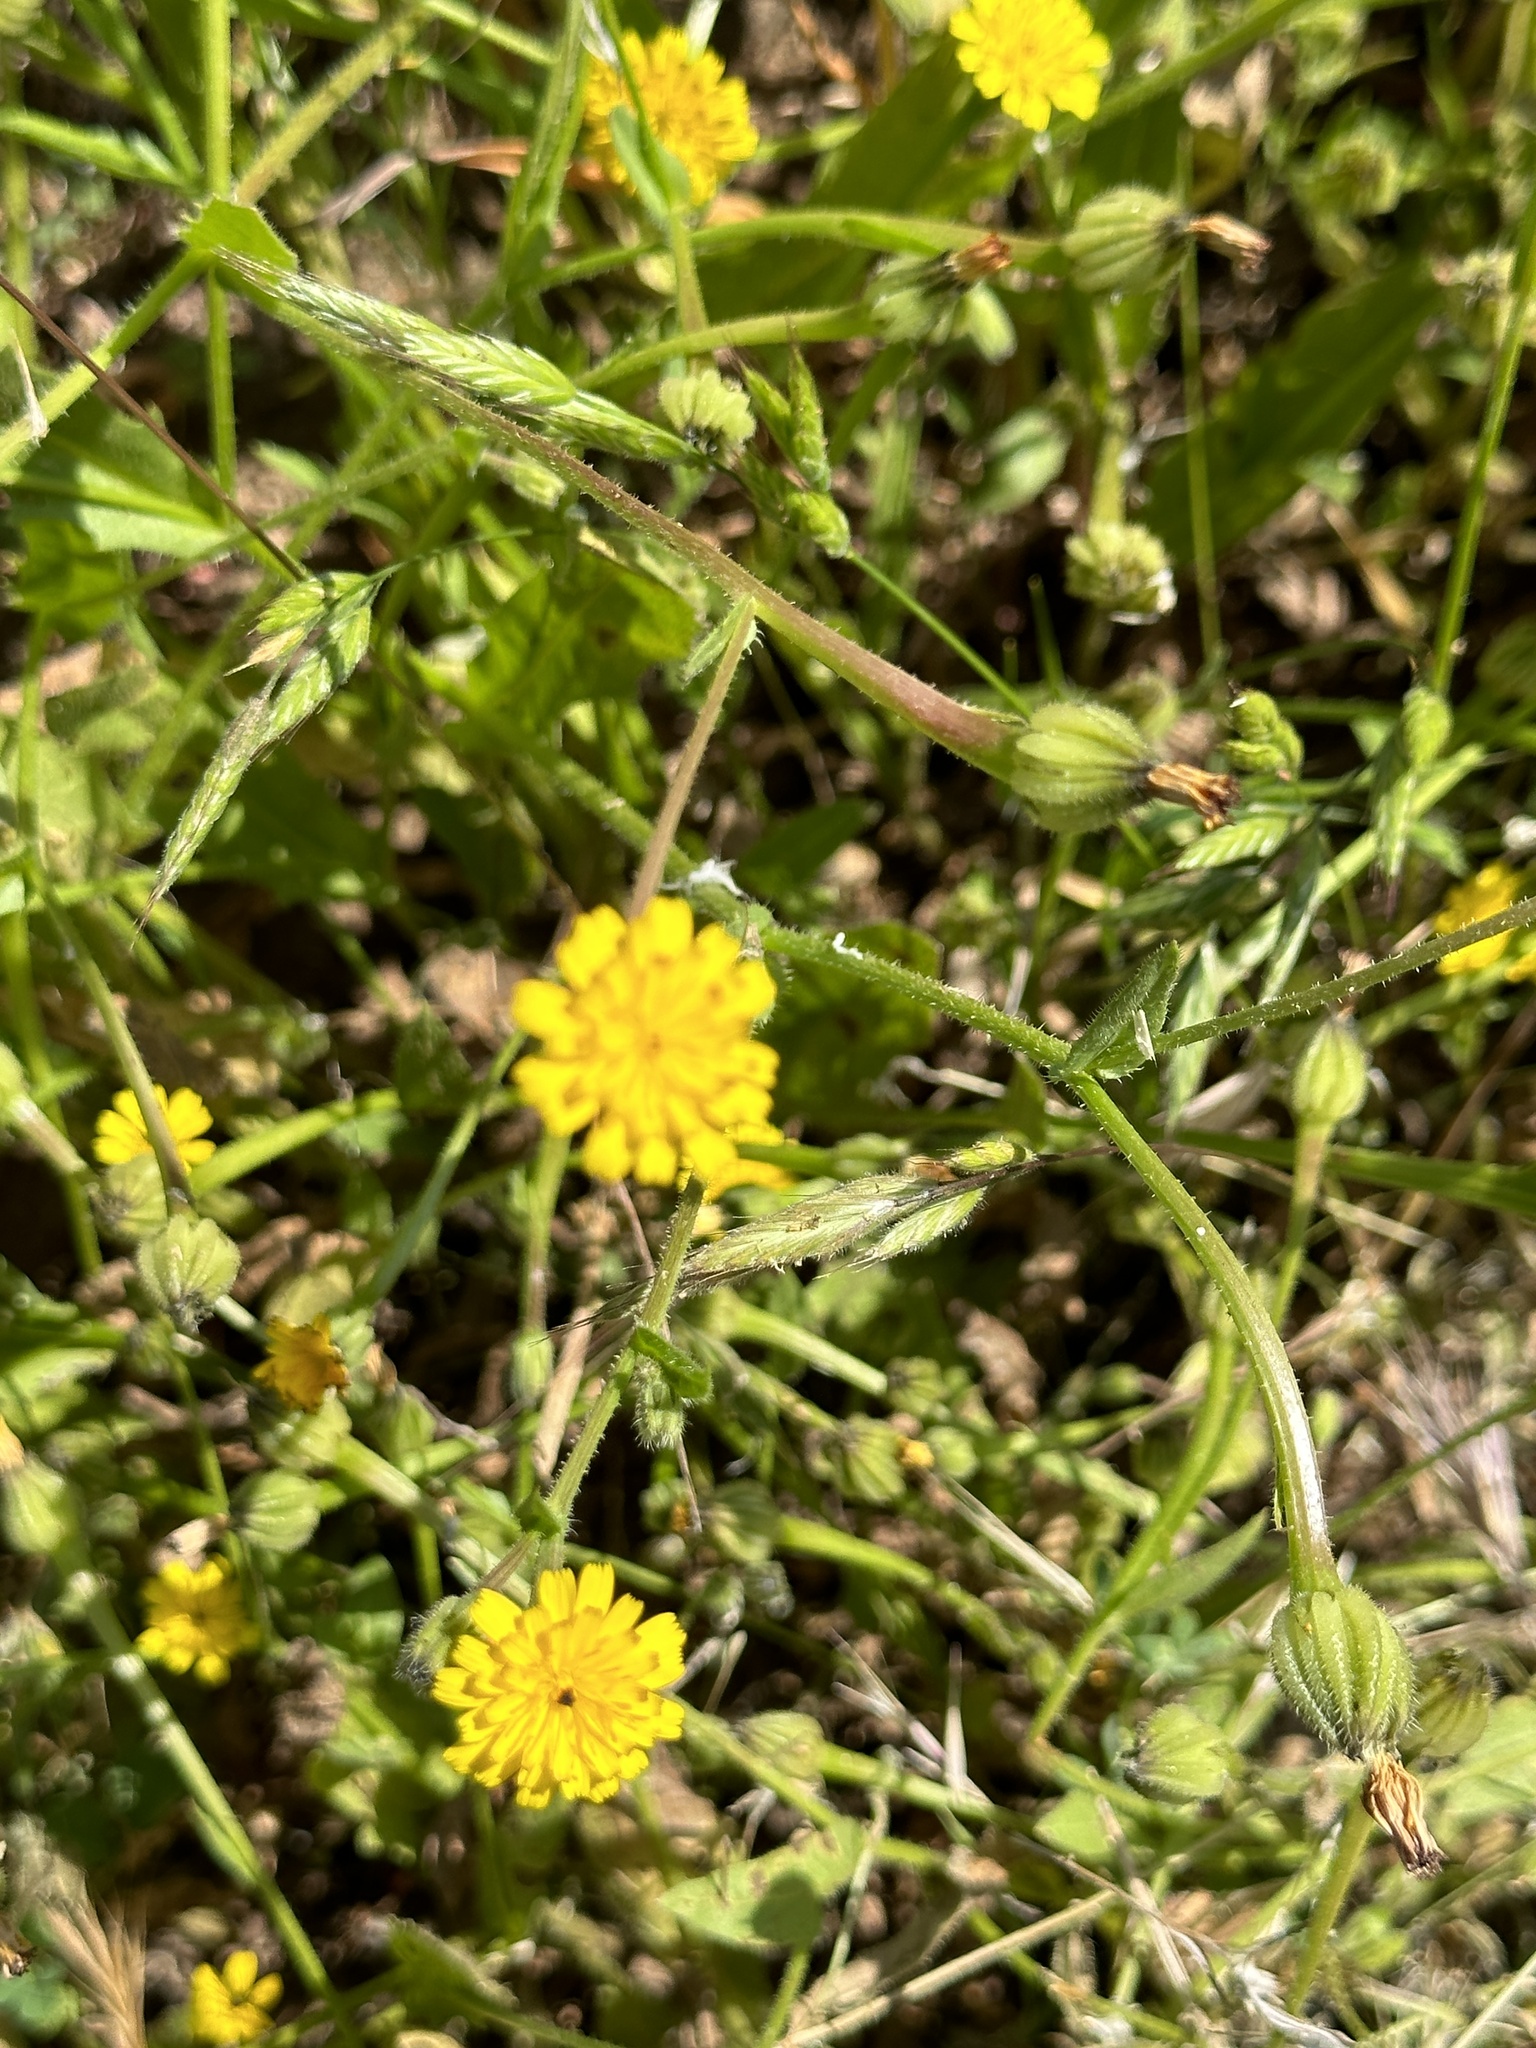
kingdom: Plantae
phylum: Tracheophyta
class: Magnoliopsida
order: Asterales
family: Asteraceae
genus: Hedypnois
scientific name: Hedypnois rhagadioloides
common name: Cretan weed
